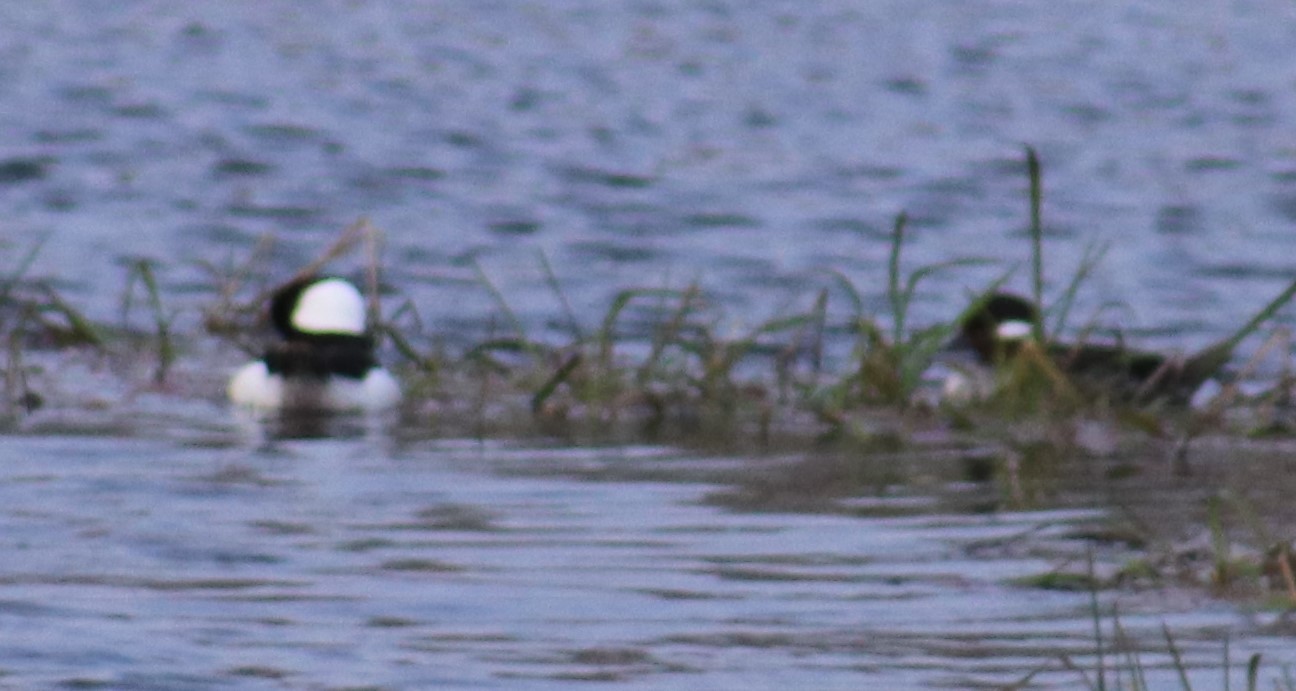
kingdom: Animalia
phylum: Chordata
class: Aves
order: Anseriformes
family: Anatidae
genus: Bucephala
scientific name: Bucephala albeola
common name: Bufflehead
